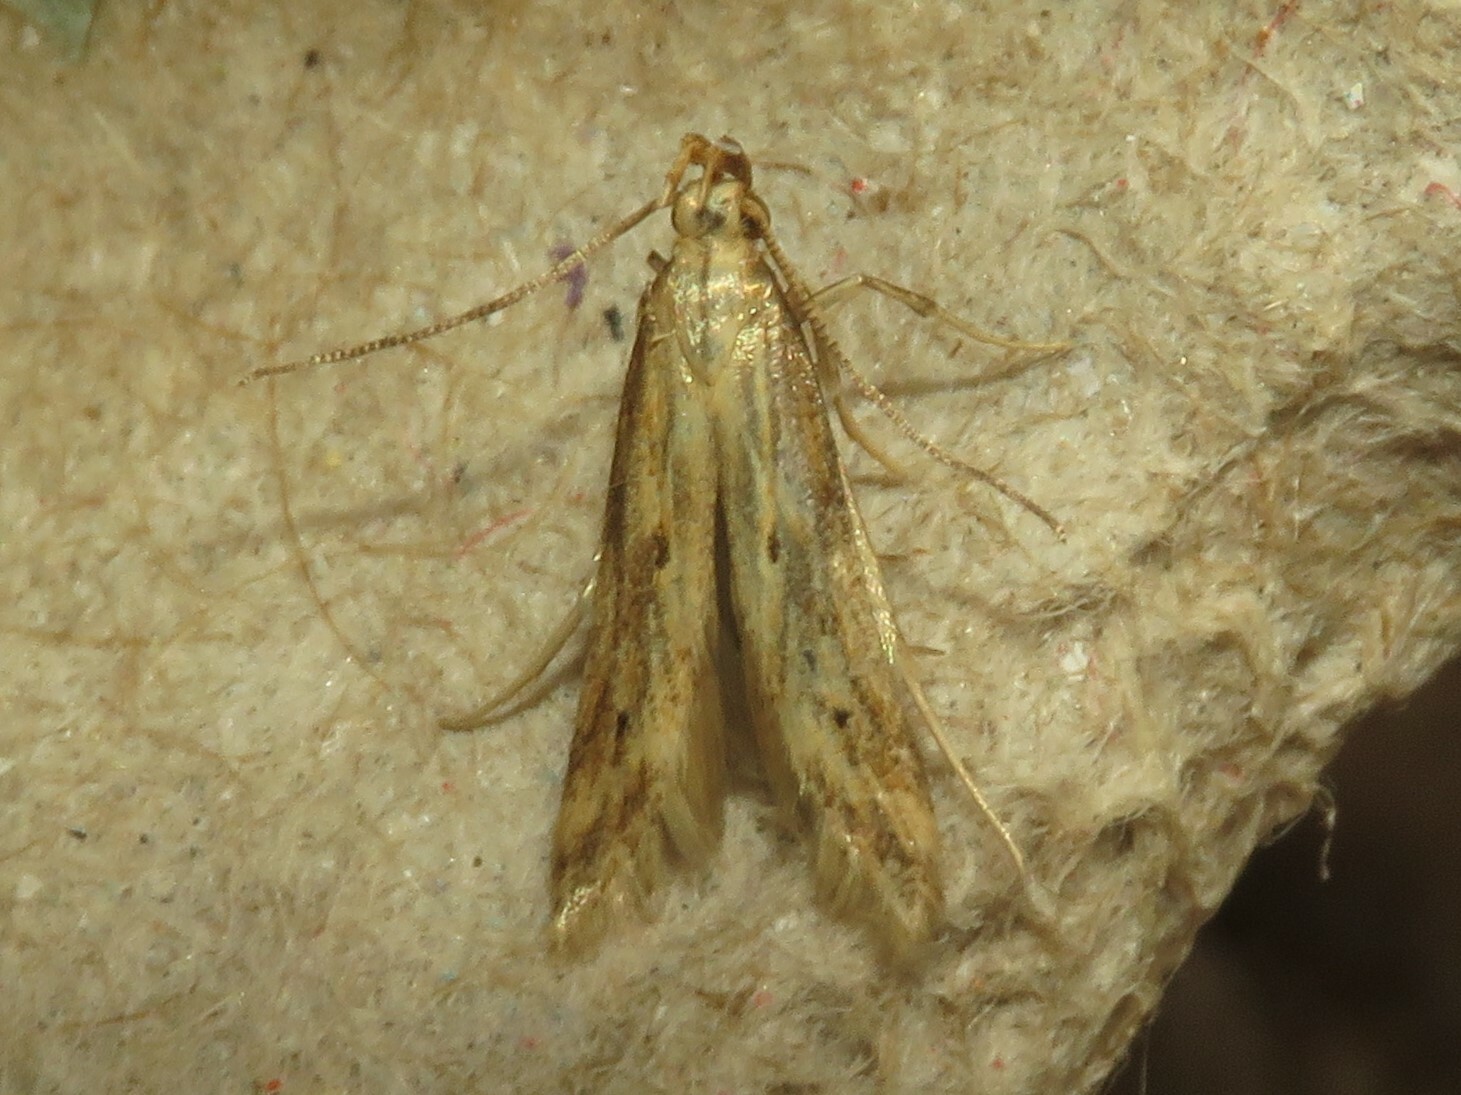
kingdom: Animalia
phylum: Arthropoda
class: Insecta
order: Lepidoptera
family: Gelechiidae
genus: Metzneria
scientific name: Metzneria lappella
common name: Burdock neb
